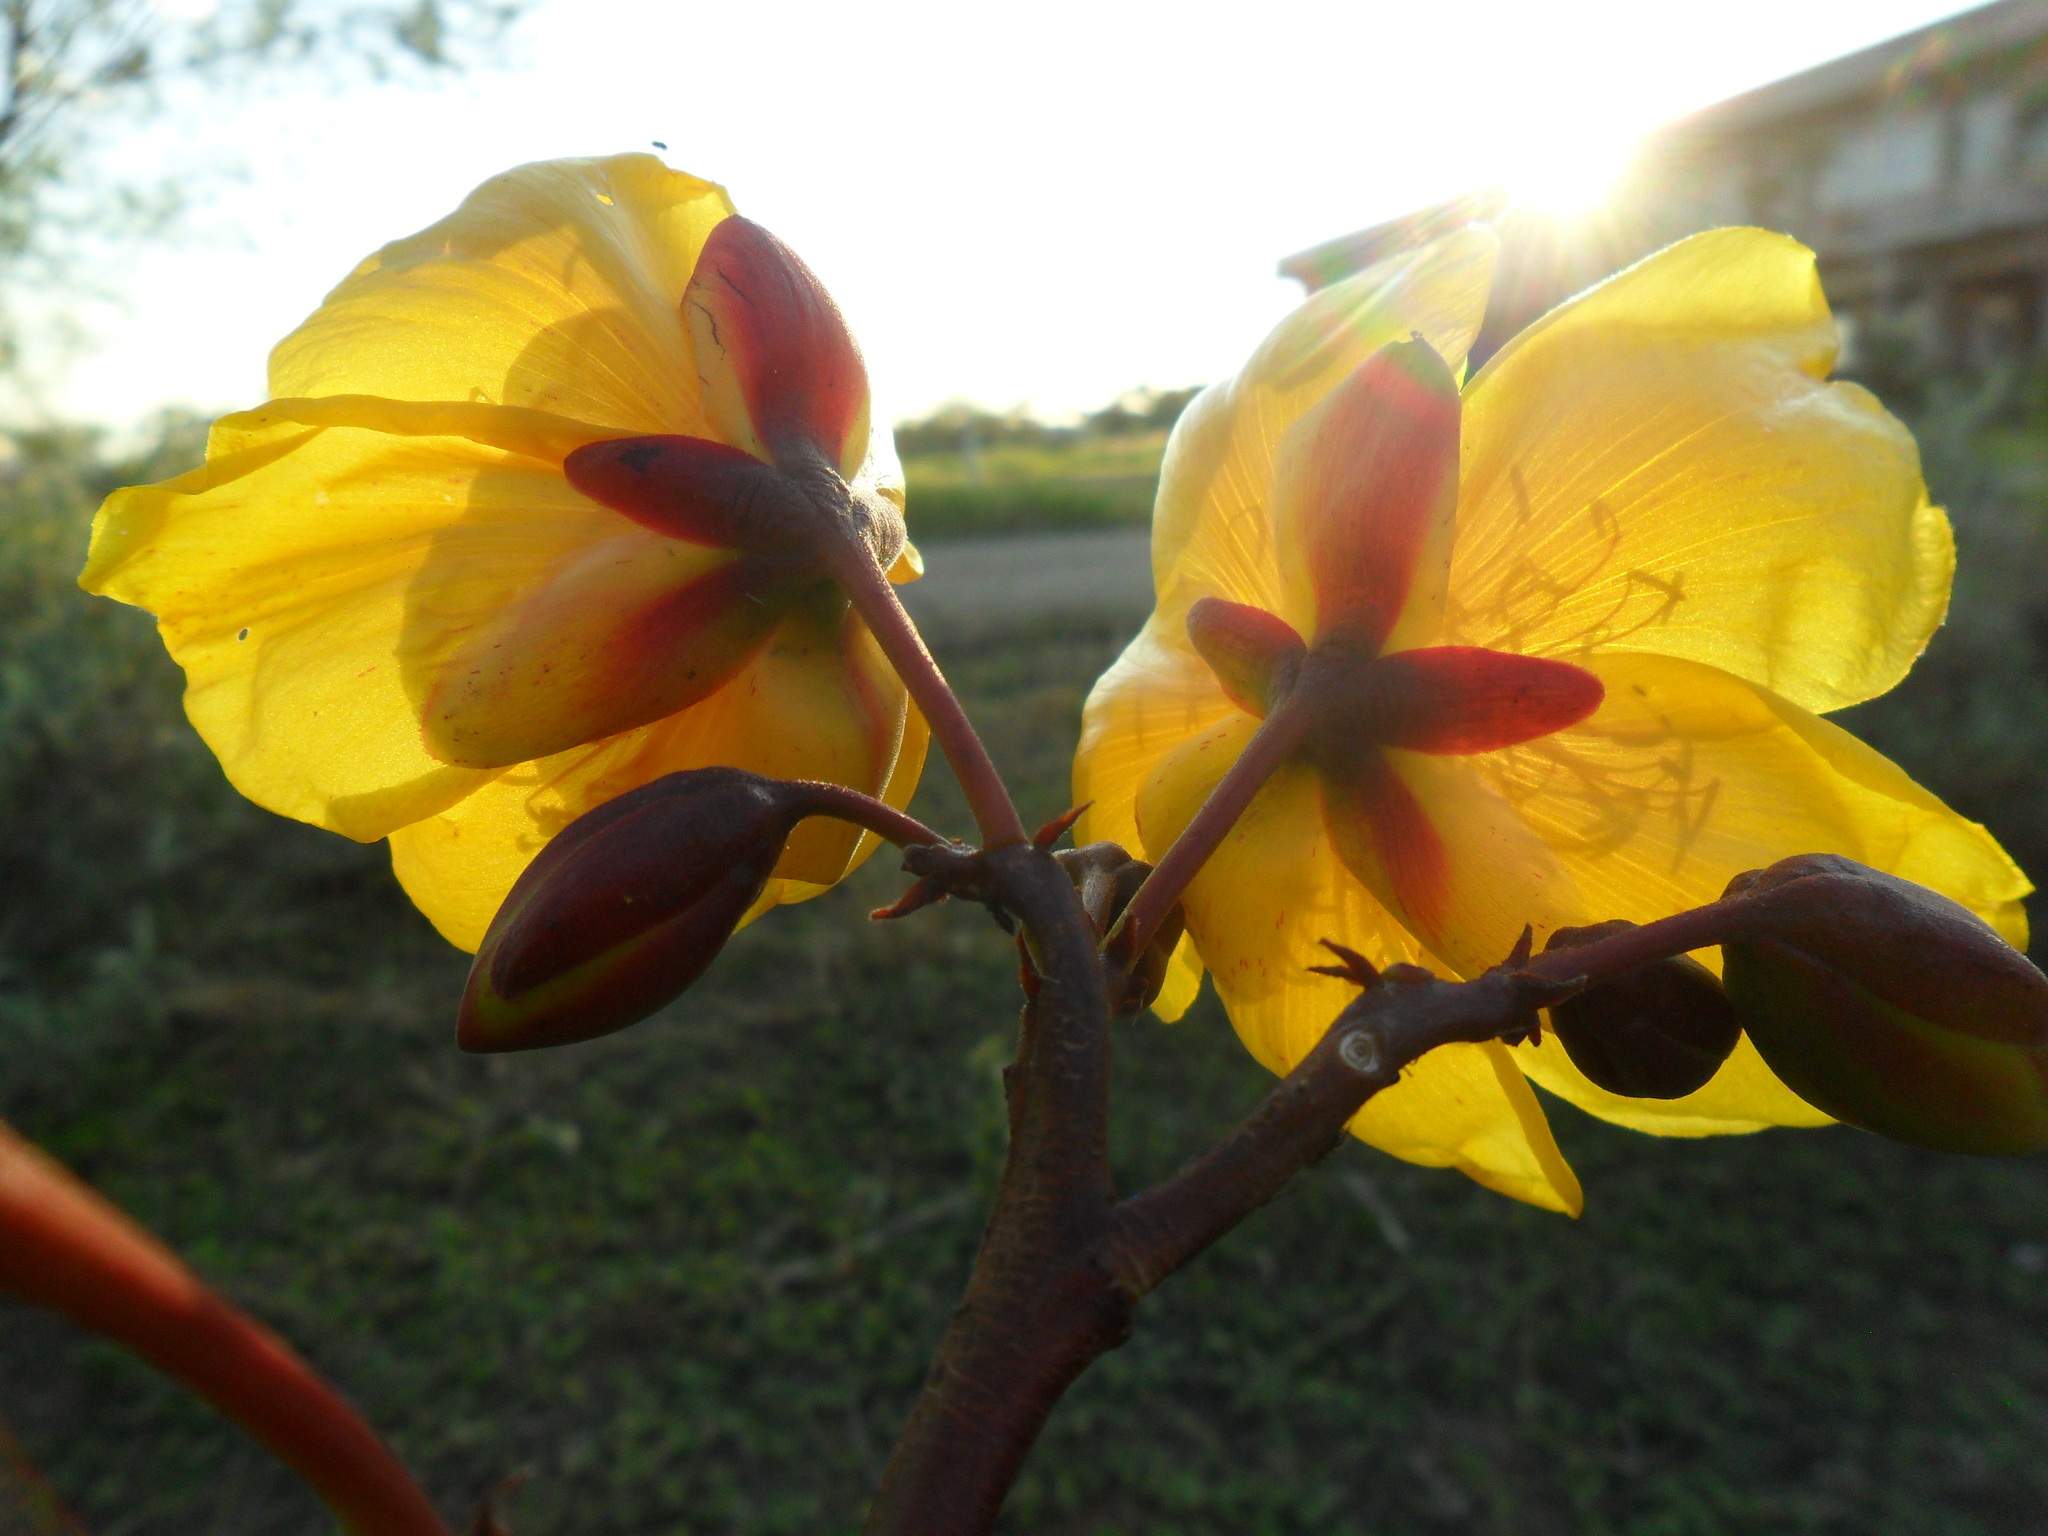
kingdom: Plantae
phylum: Tracheophyta
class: Magnoliopsida
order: Malvales
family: Cochlospermaceae
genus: Cochlospermum
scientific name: Cochlospermum regium
